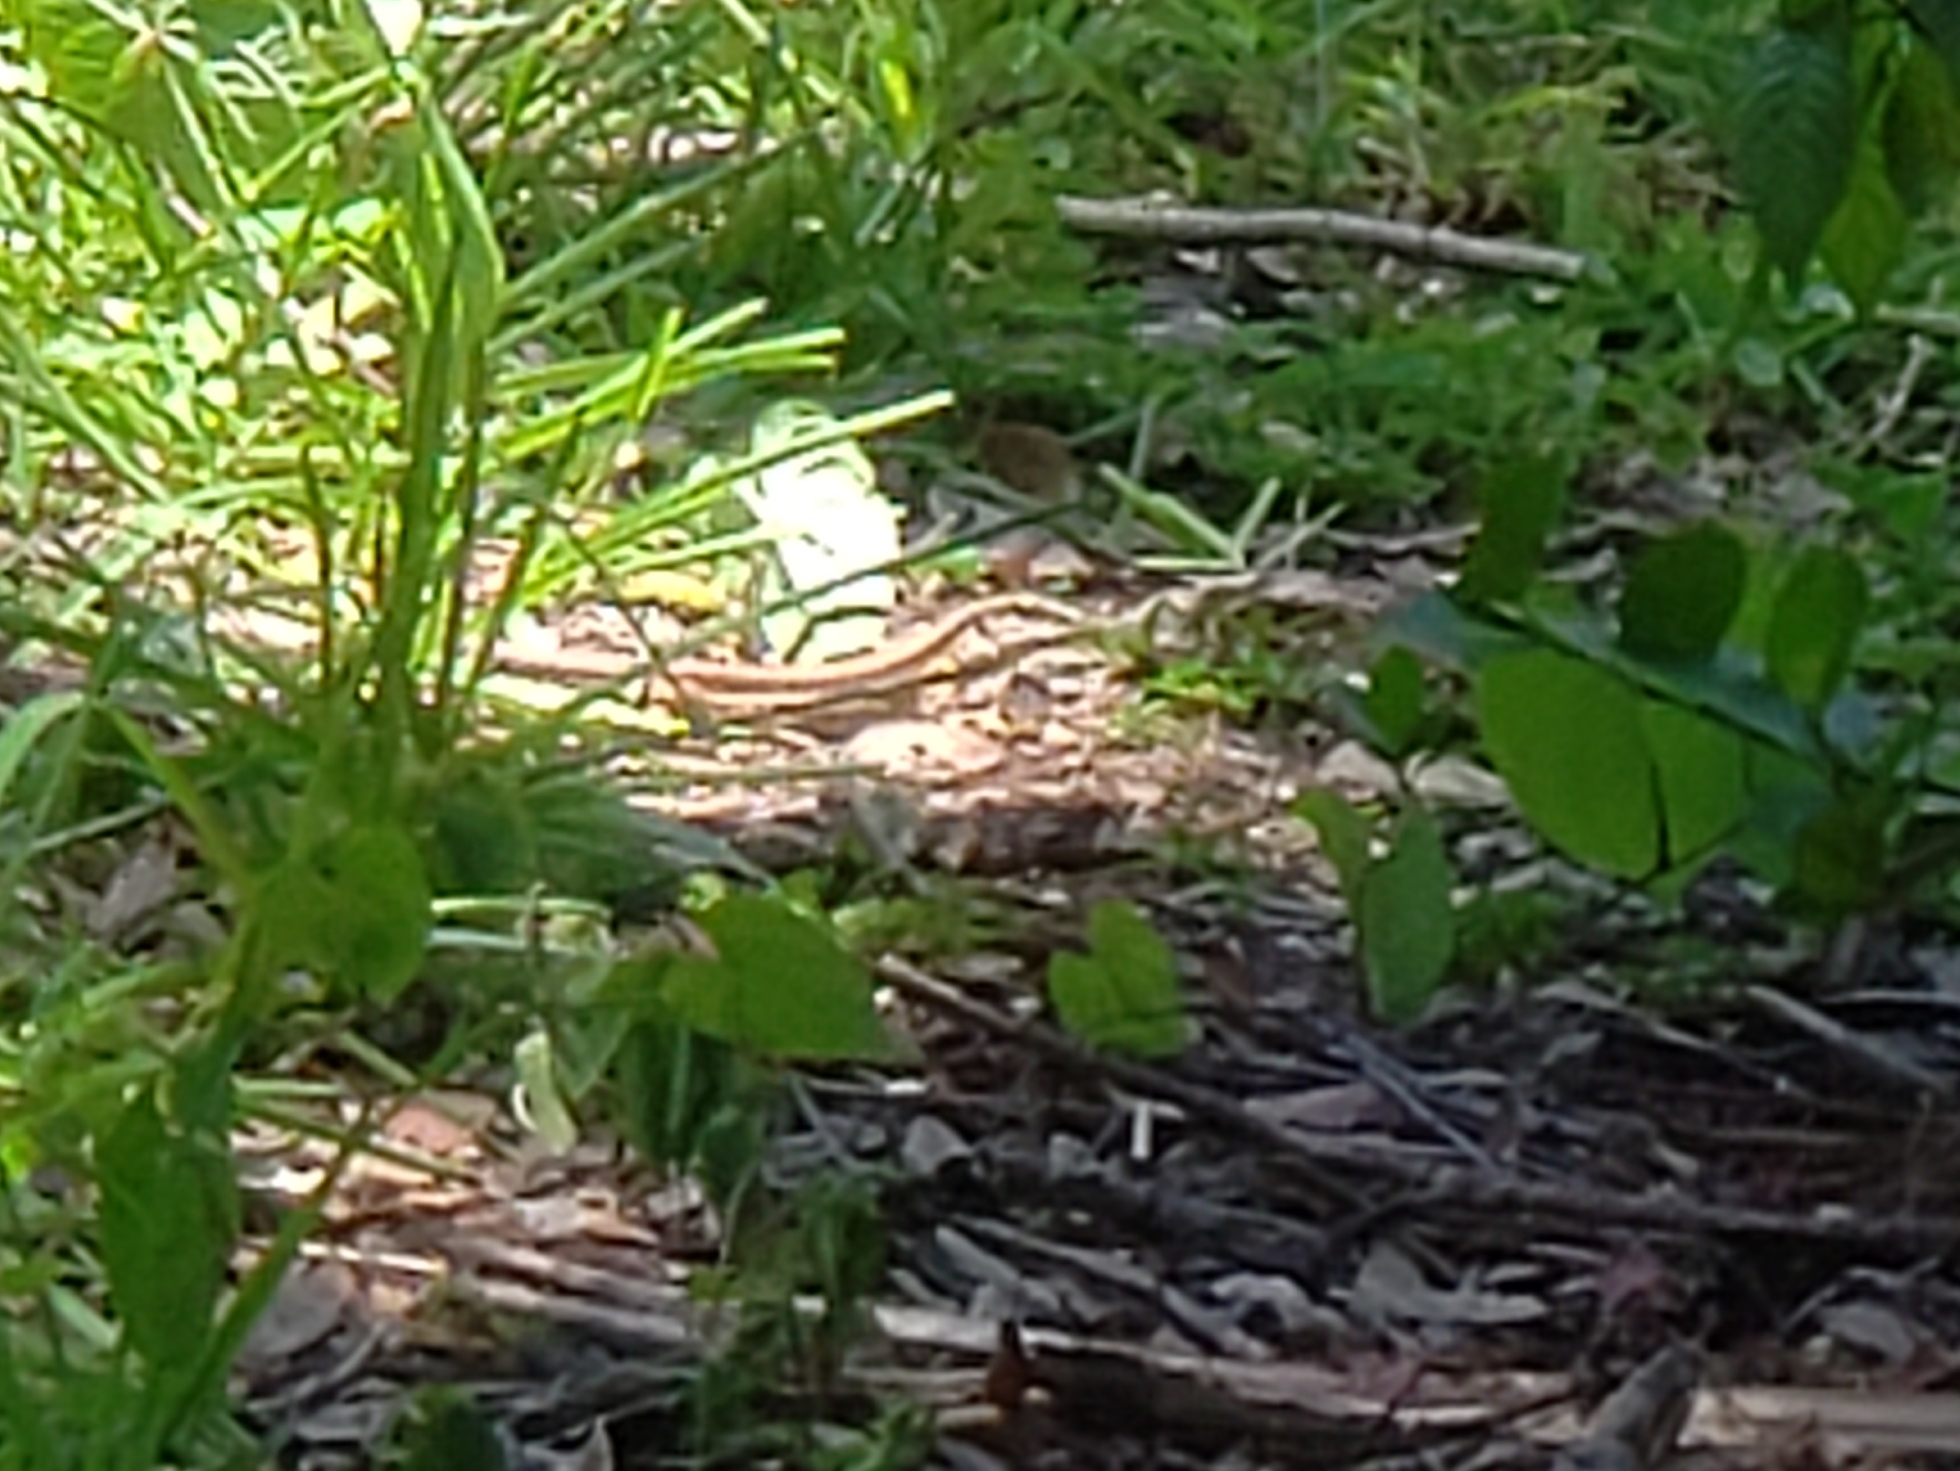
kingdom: Animalia
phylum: Chordata
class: Squamata
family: Teiidae
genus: Ameiva
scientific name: Ameiva ameiva
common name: Giant ameiva
